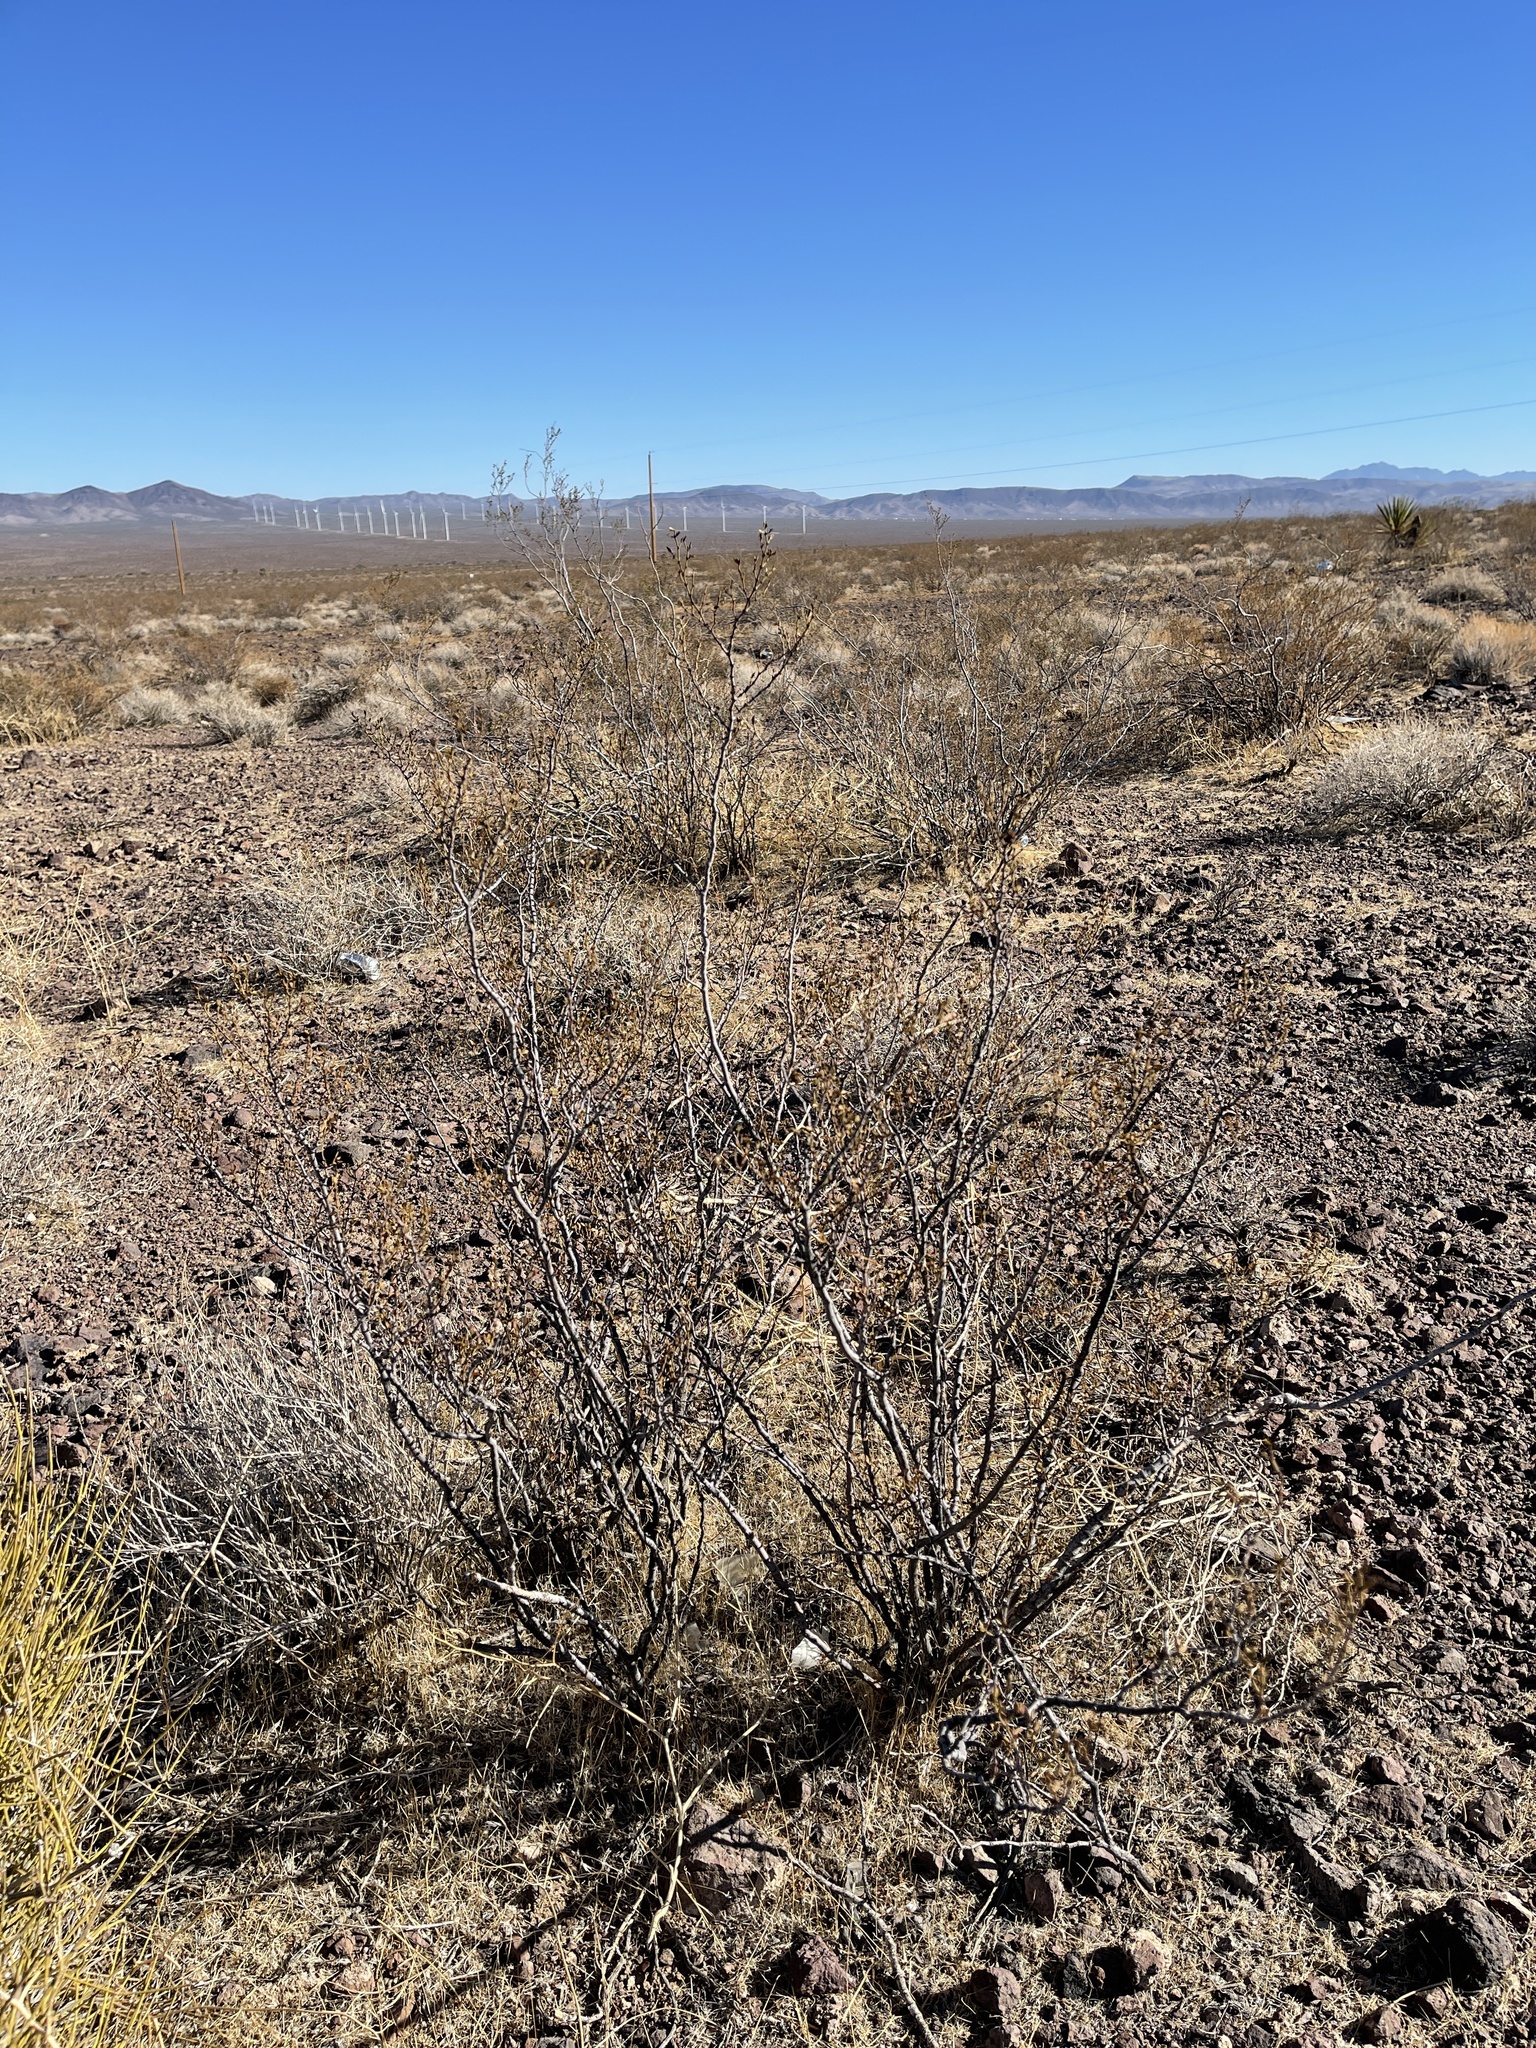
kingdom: Plantae
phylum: Tracheophyta
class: Magnoliopsida
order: Zygophyllales
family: Zygophyllaceae
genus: Larrea
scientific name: Larrea tridentata
